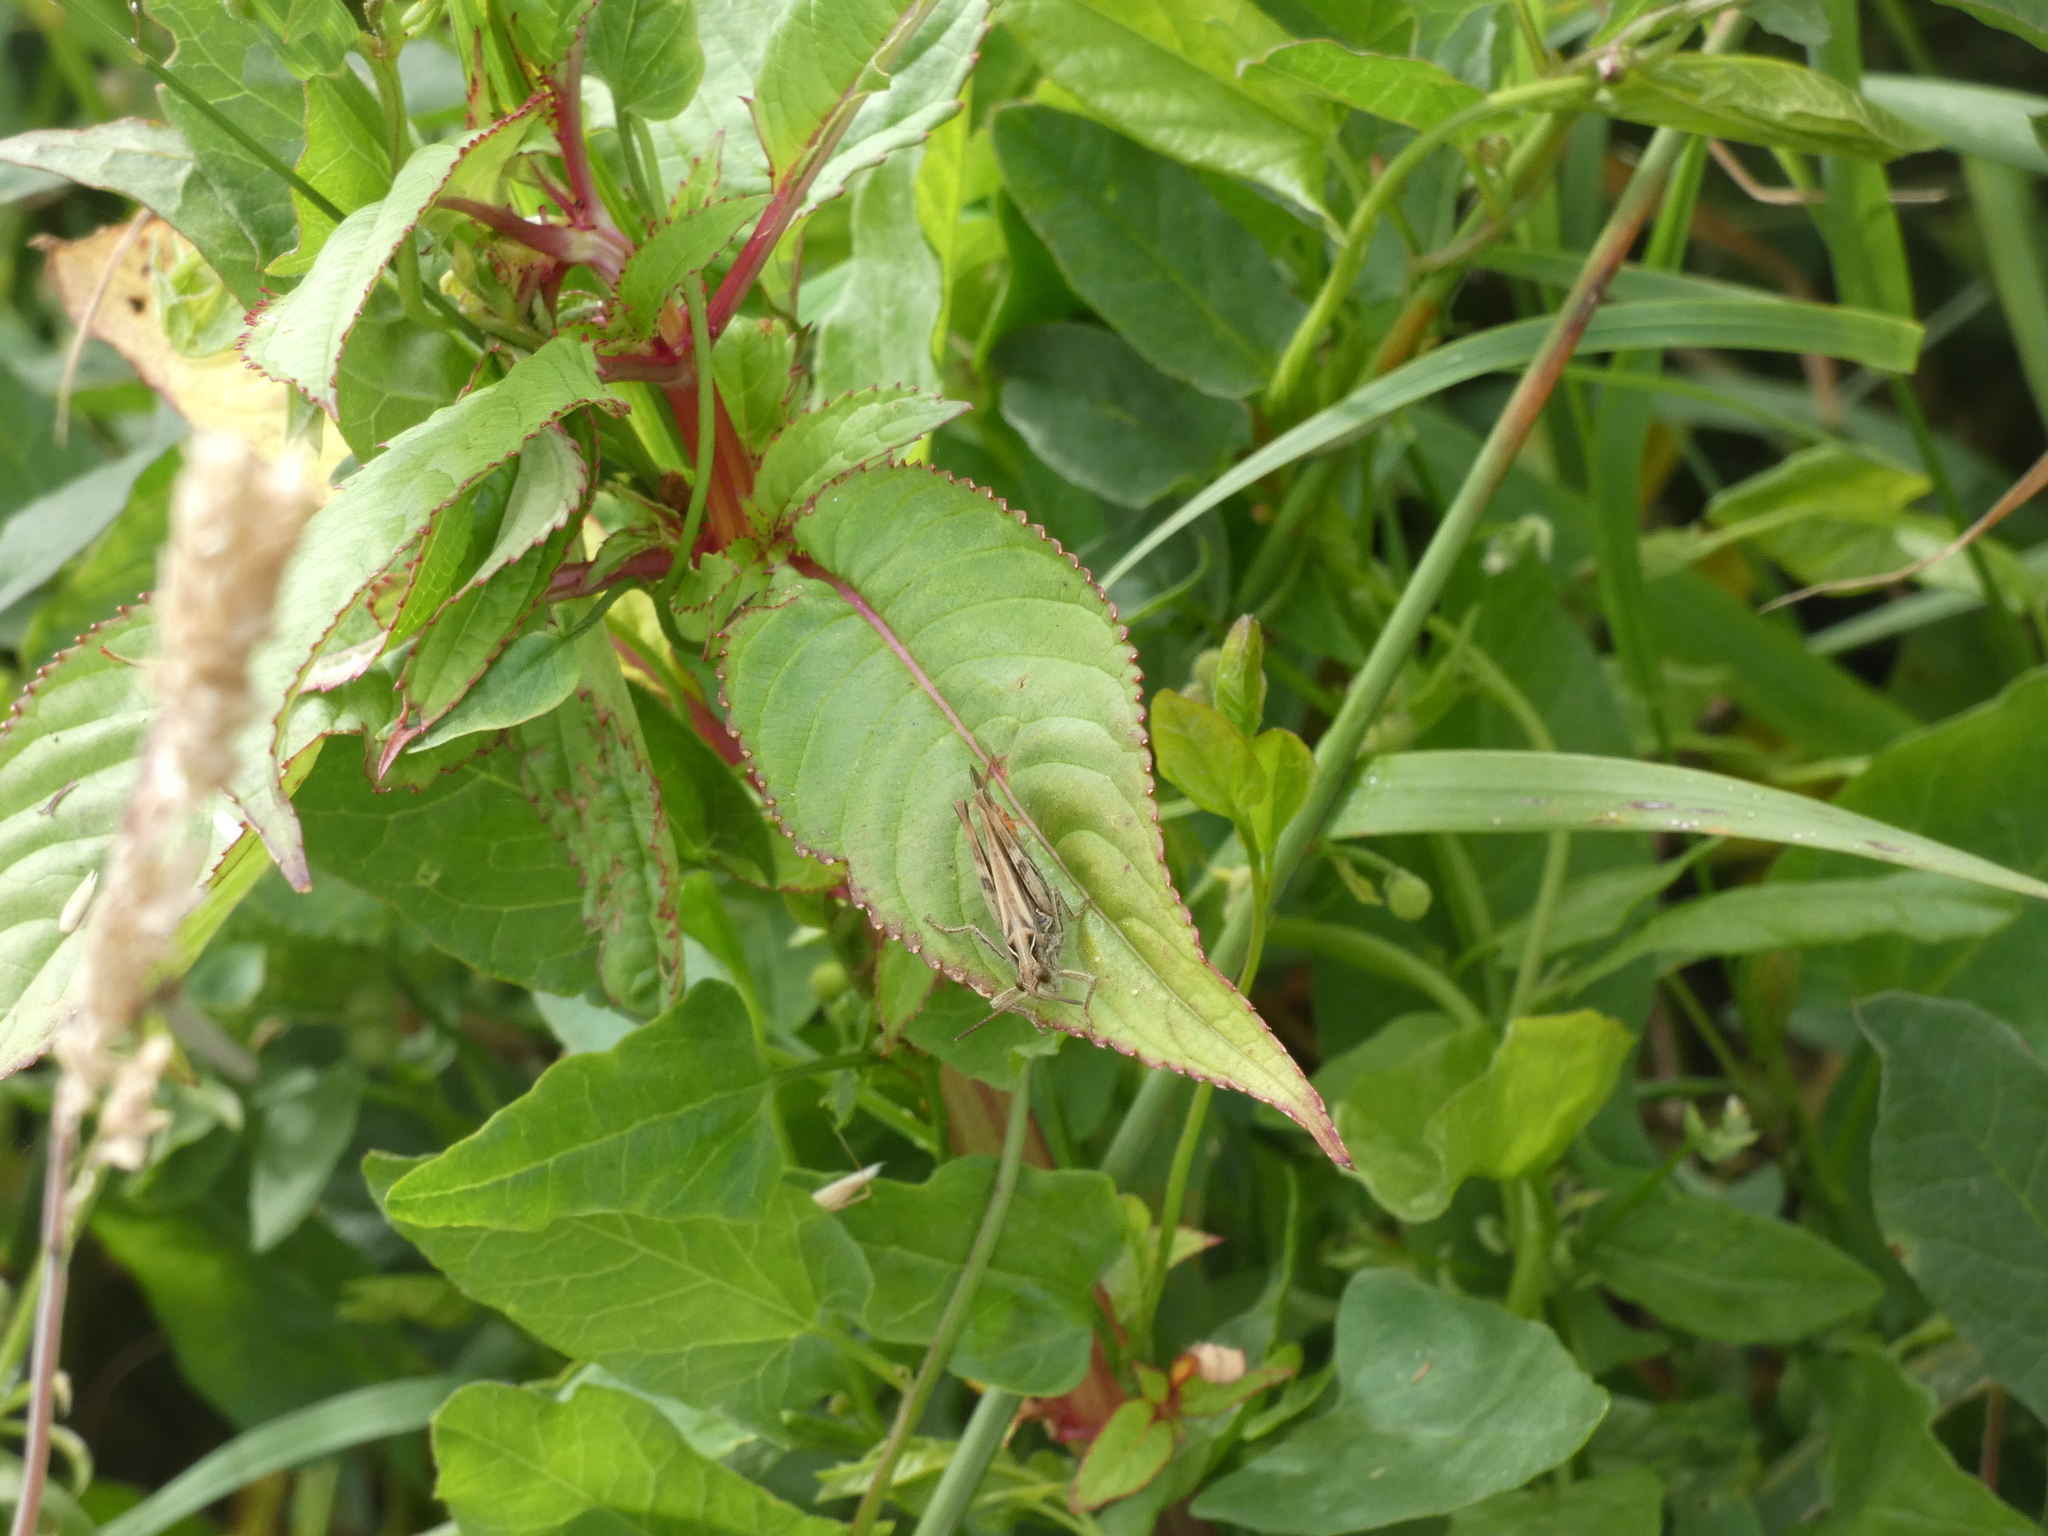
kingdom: Animalia
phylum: Arthropoda
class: Insecta
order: Orthoptera
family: Acrididae
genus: Chorthippus
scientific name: Chorthippus brunneus
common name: Field grasshopper
